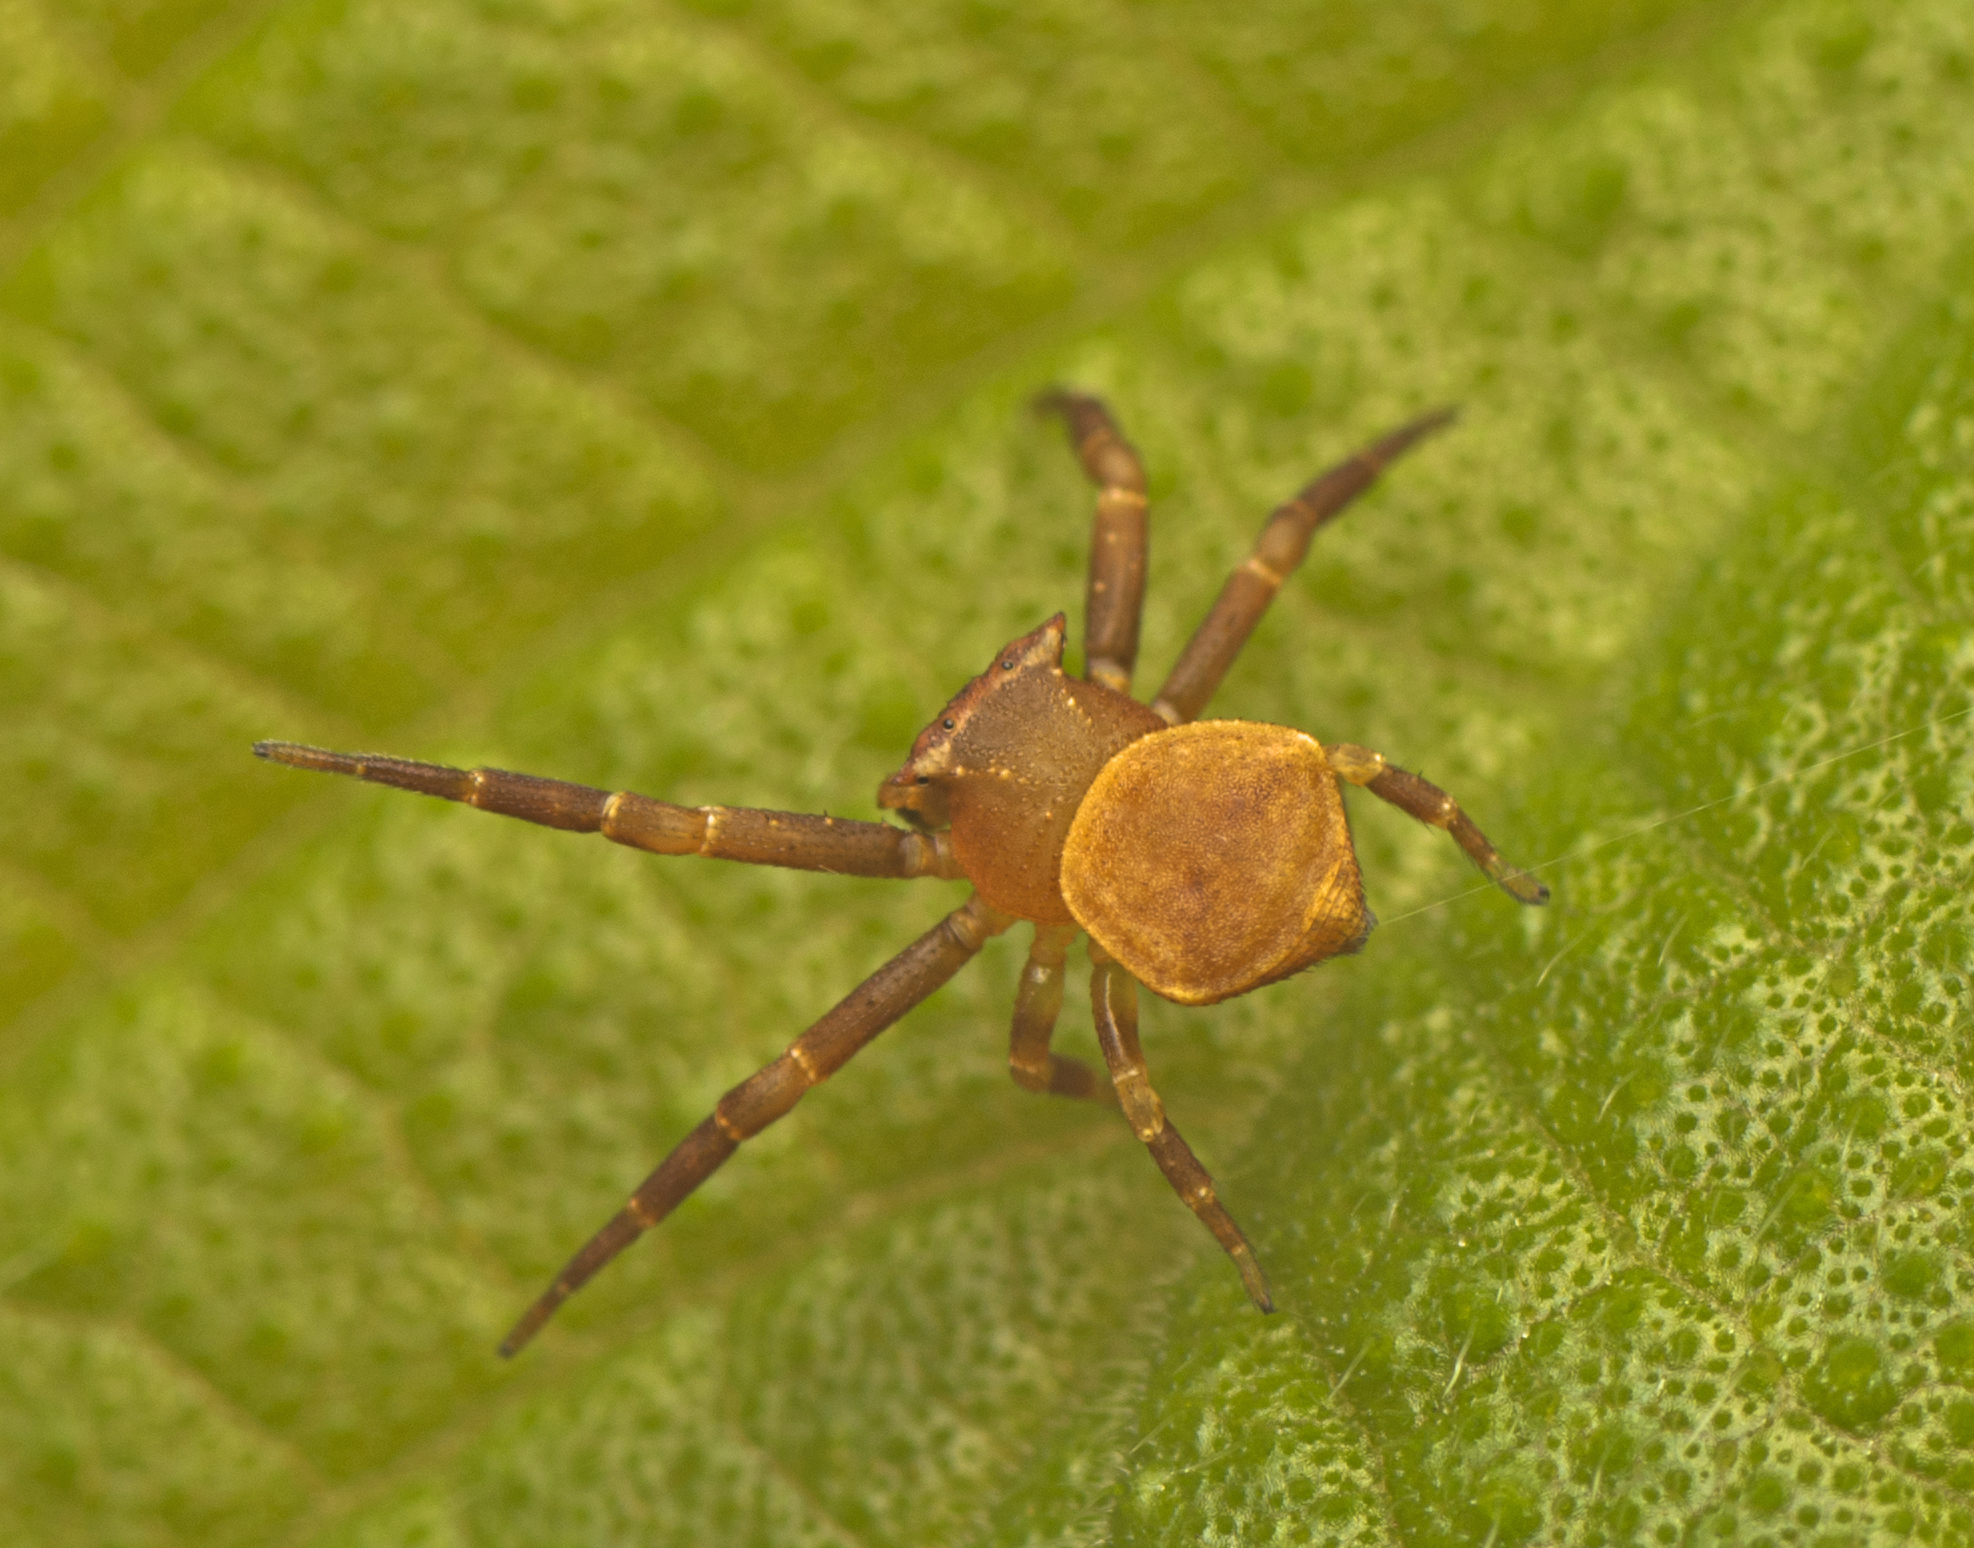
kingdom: Animalia
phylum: Arthropoda
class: Arachnida
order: Araneae
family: Thomisidae
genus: Thomisus
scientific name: Thomisus spectabilis
